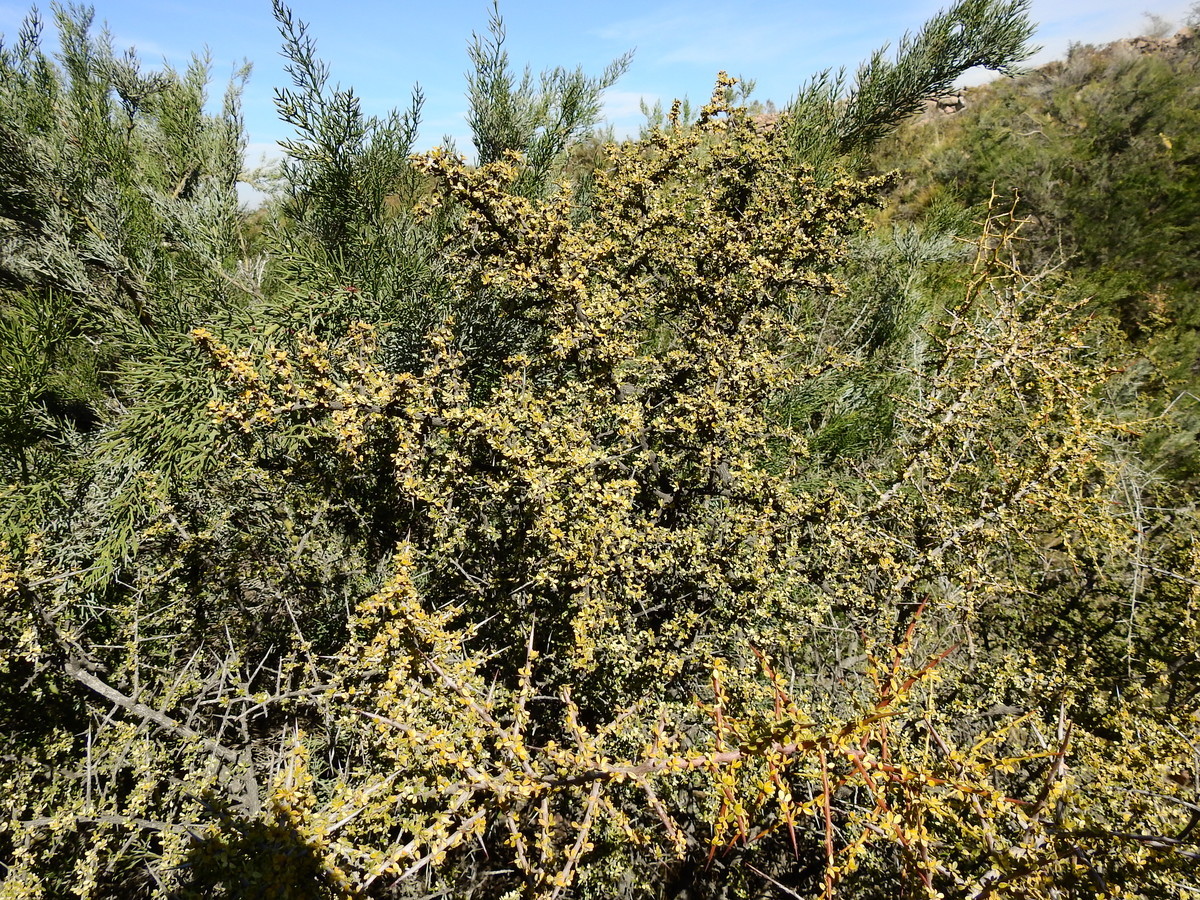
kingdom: Plantae
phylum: Tracheophyta
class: Magnoliopsida
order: Rosales
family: Rhamnaceae
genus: Condalia
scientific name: Condalia microphylla
